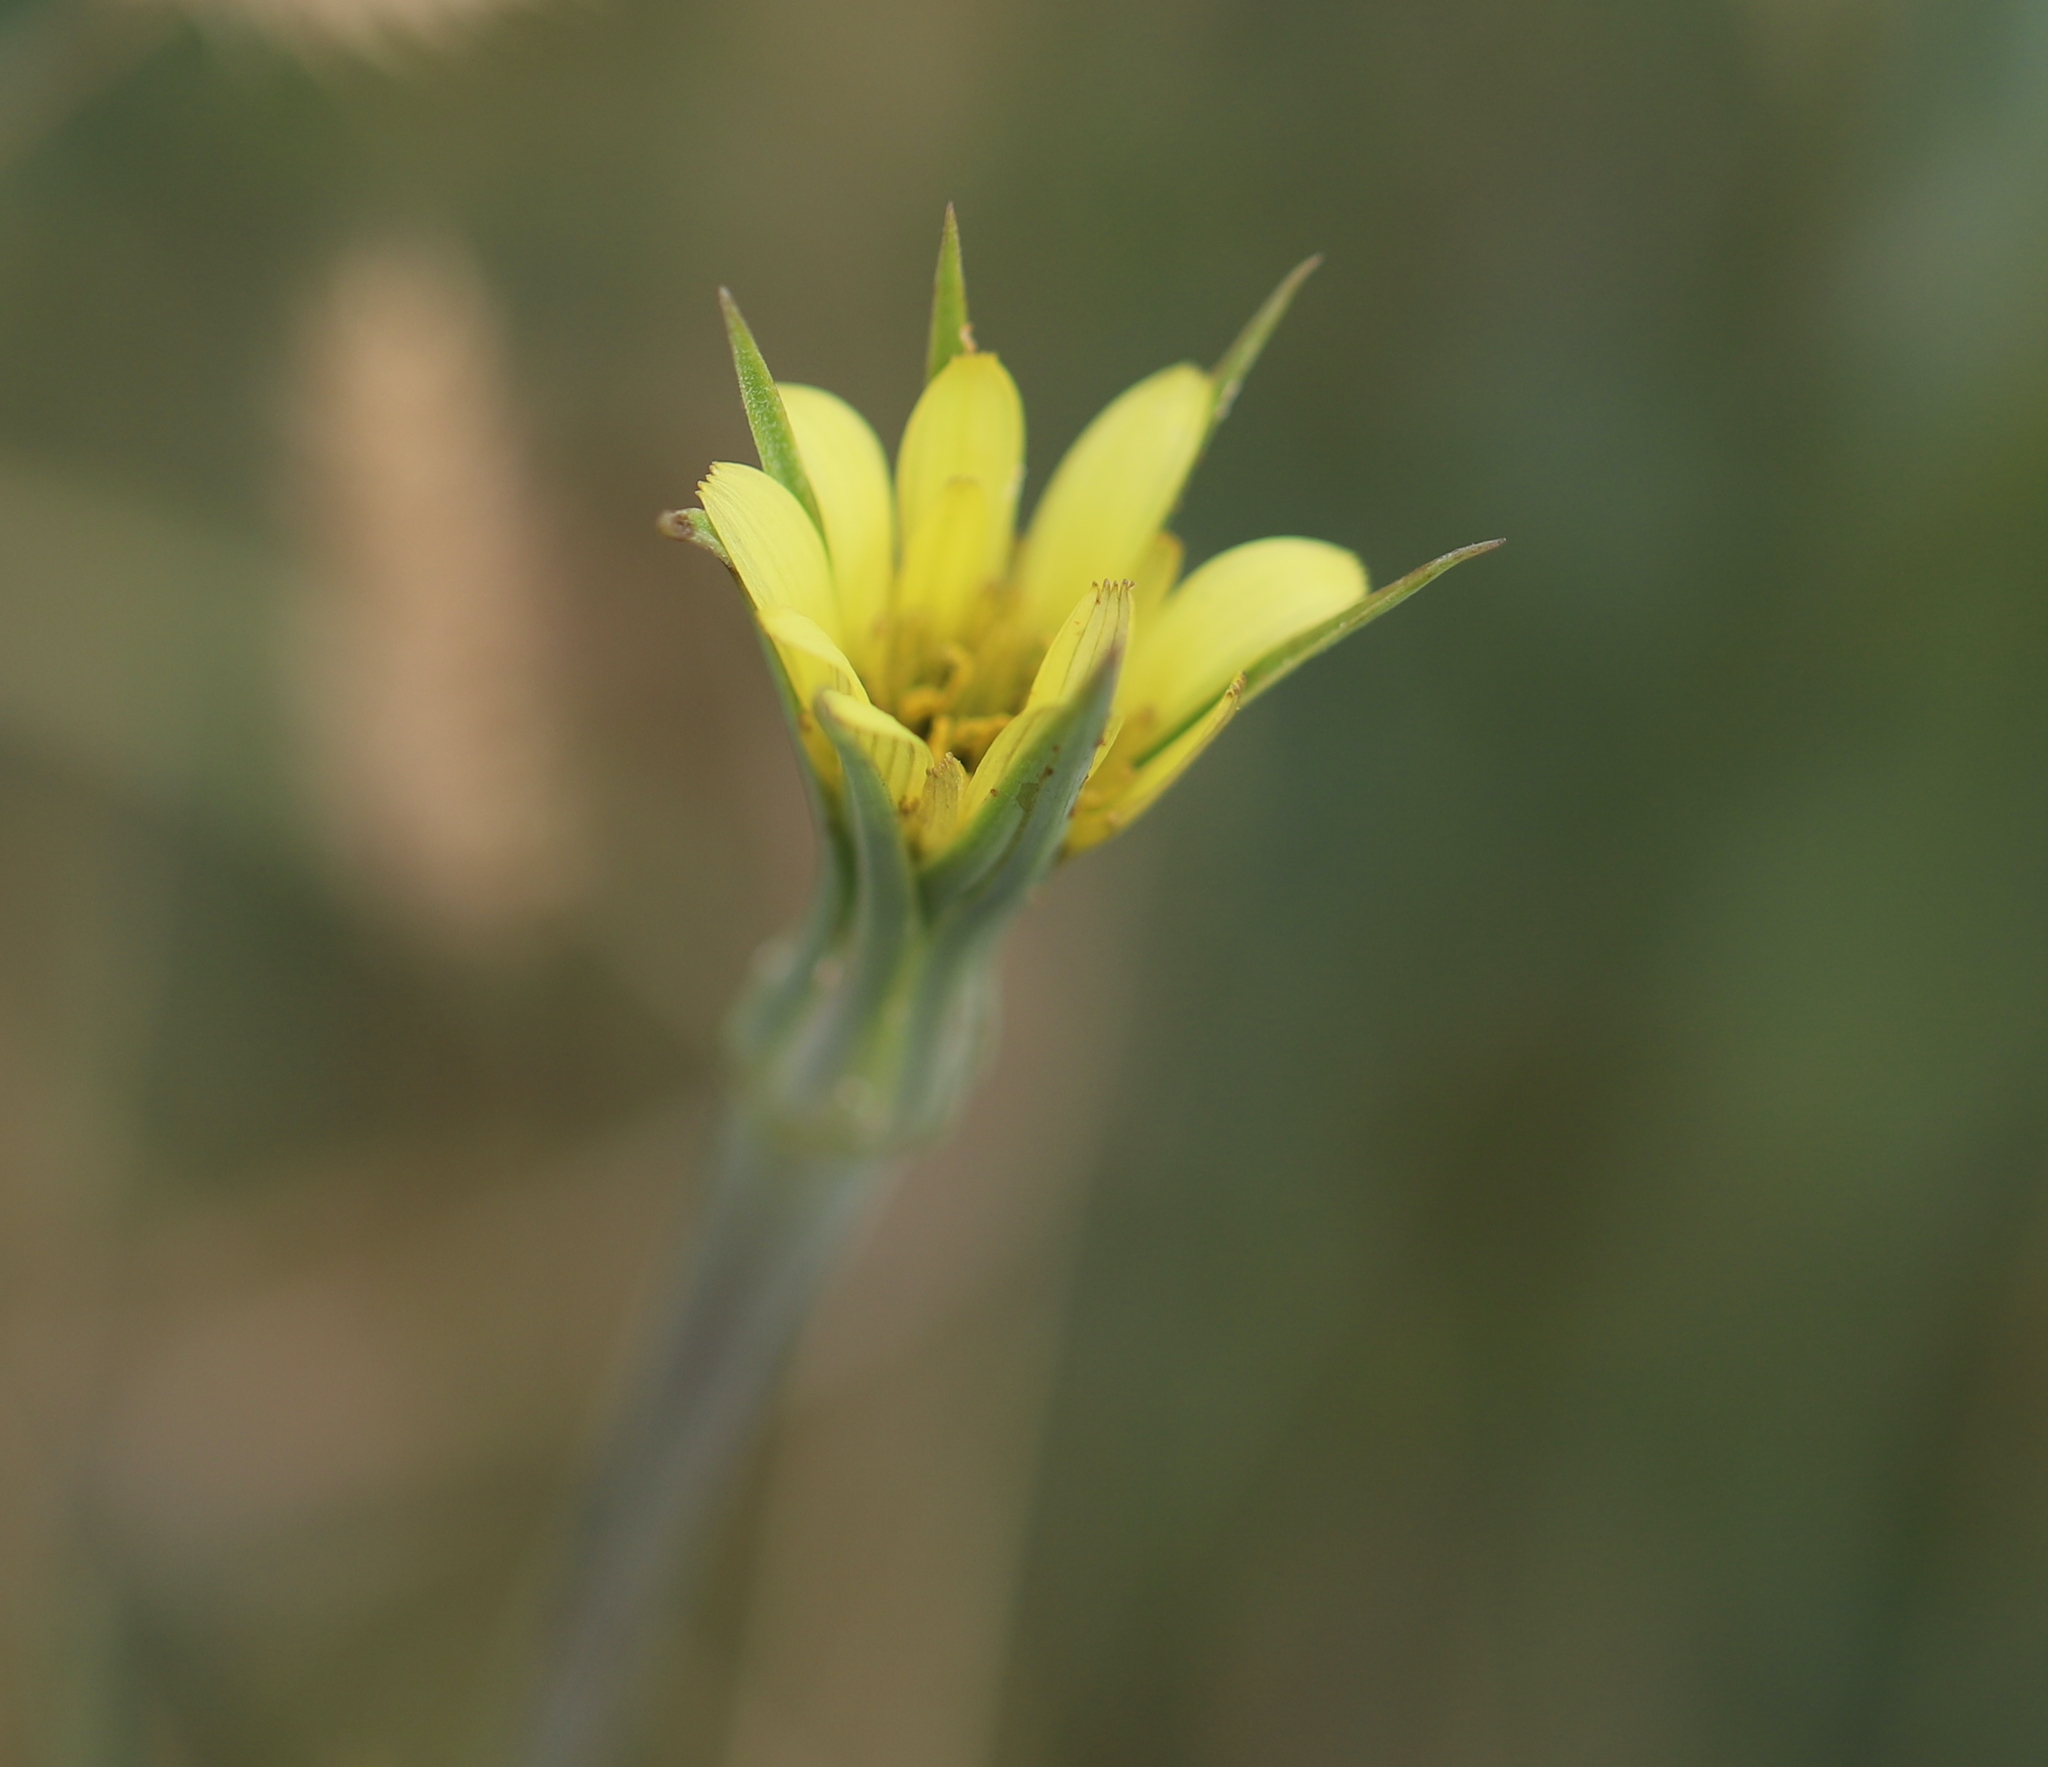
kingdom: Plantae
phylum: Tracheophyta
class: Magnoliopsida
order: Asterales
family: Asteraceae
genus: Tragopogon
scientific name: Tragopogon dubius
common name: Yellow salsify
